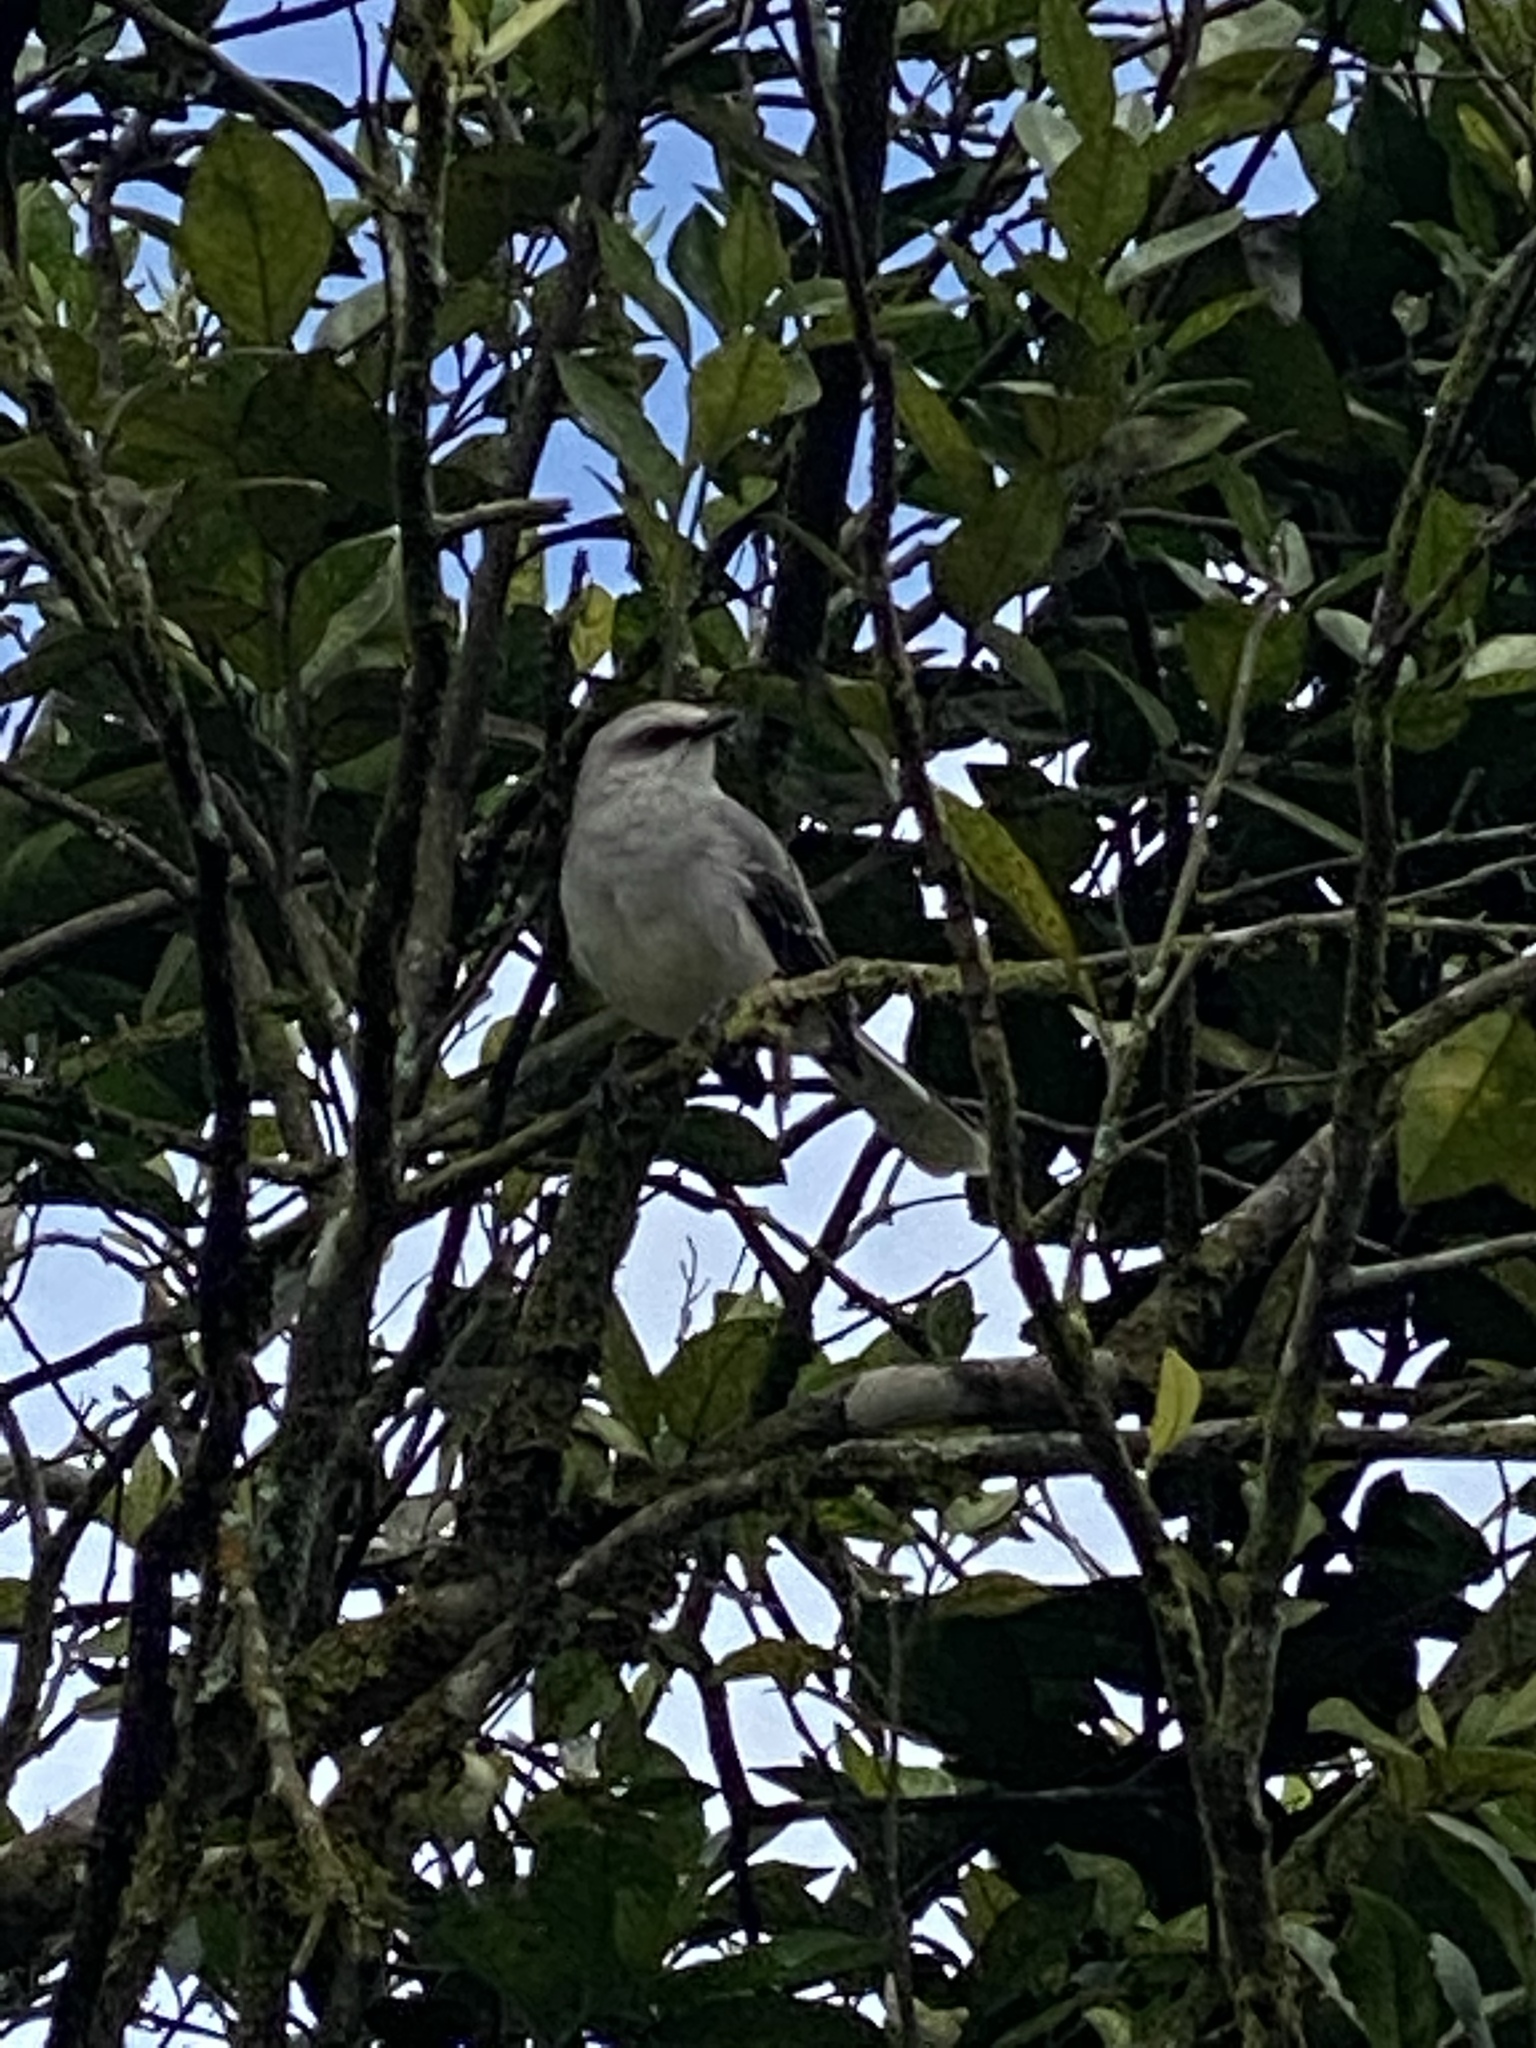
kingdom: Animalia
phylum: Chordata
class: Aves
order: Passeriformes
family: Mimidae
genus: Mimus
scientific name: Mimus gilvus
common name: Tropical mockingbird
